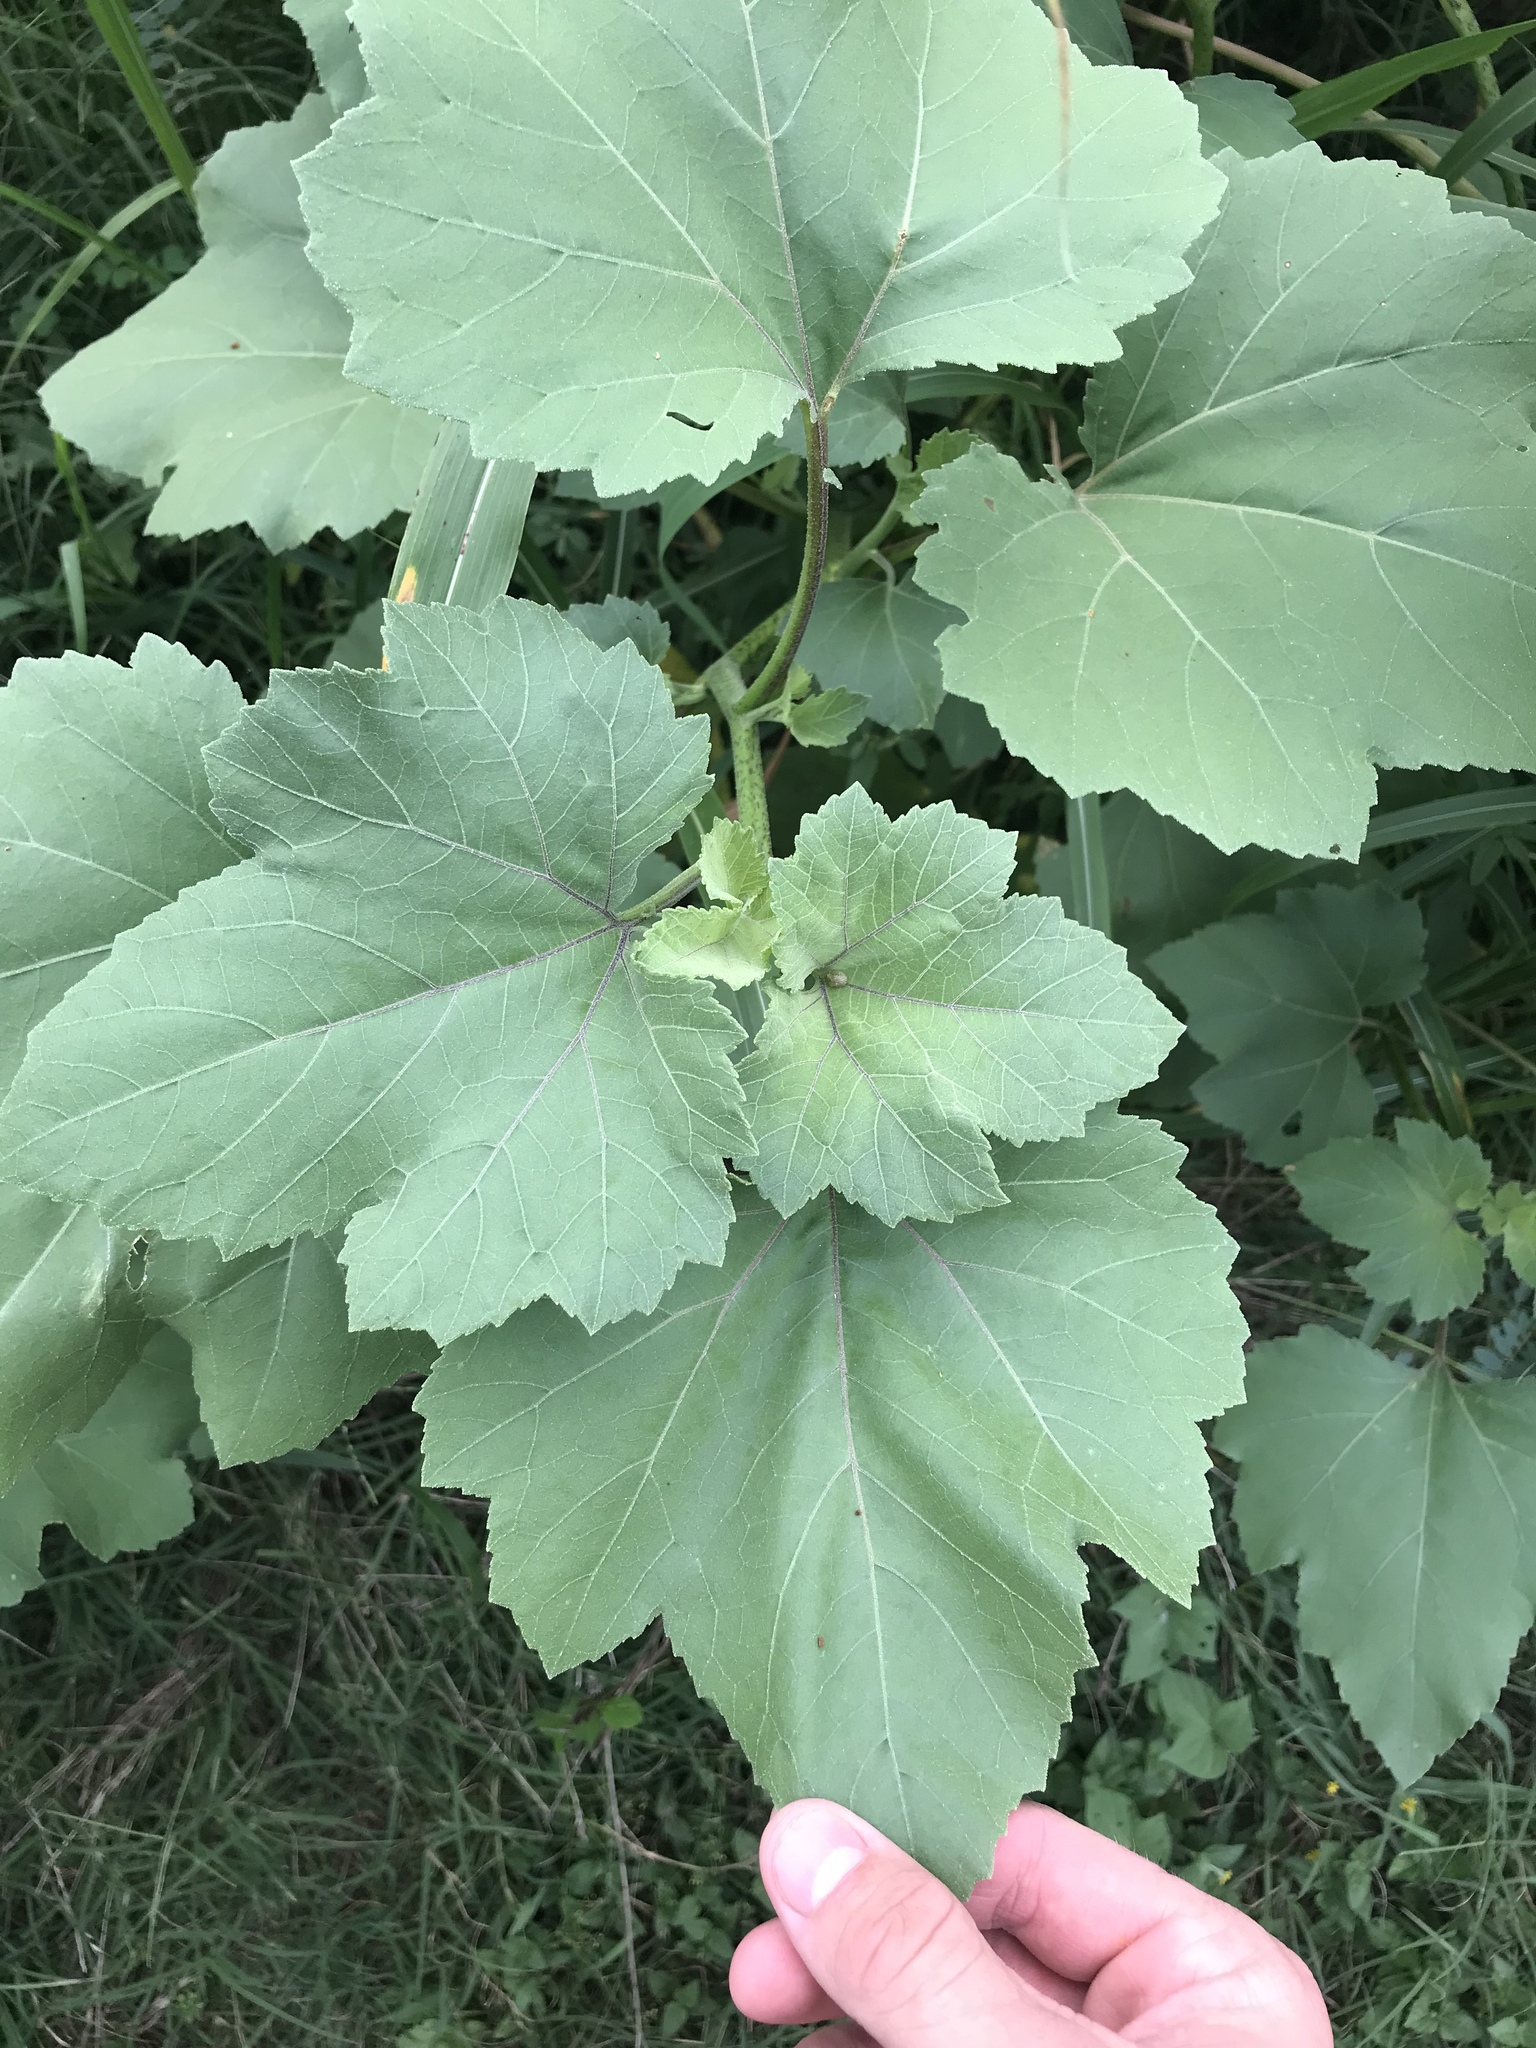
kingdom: Plantae
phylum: Tracheophyta
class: Magnoliopsida
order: Asterales
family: Asteraceae
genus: Xanthium
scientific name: Xanthium strumarium
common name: Rough cocklebur
